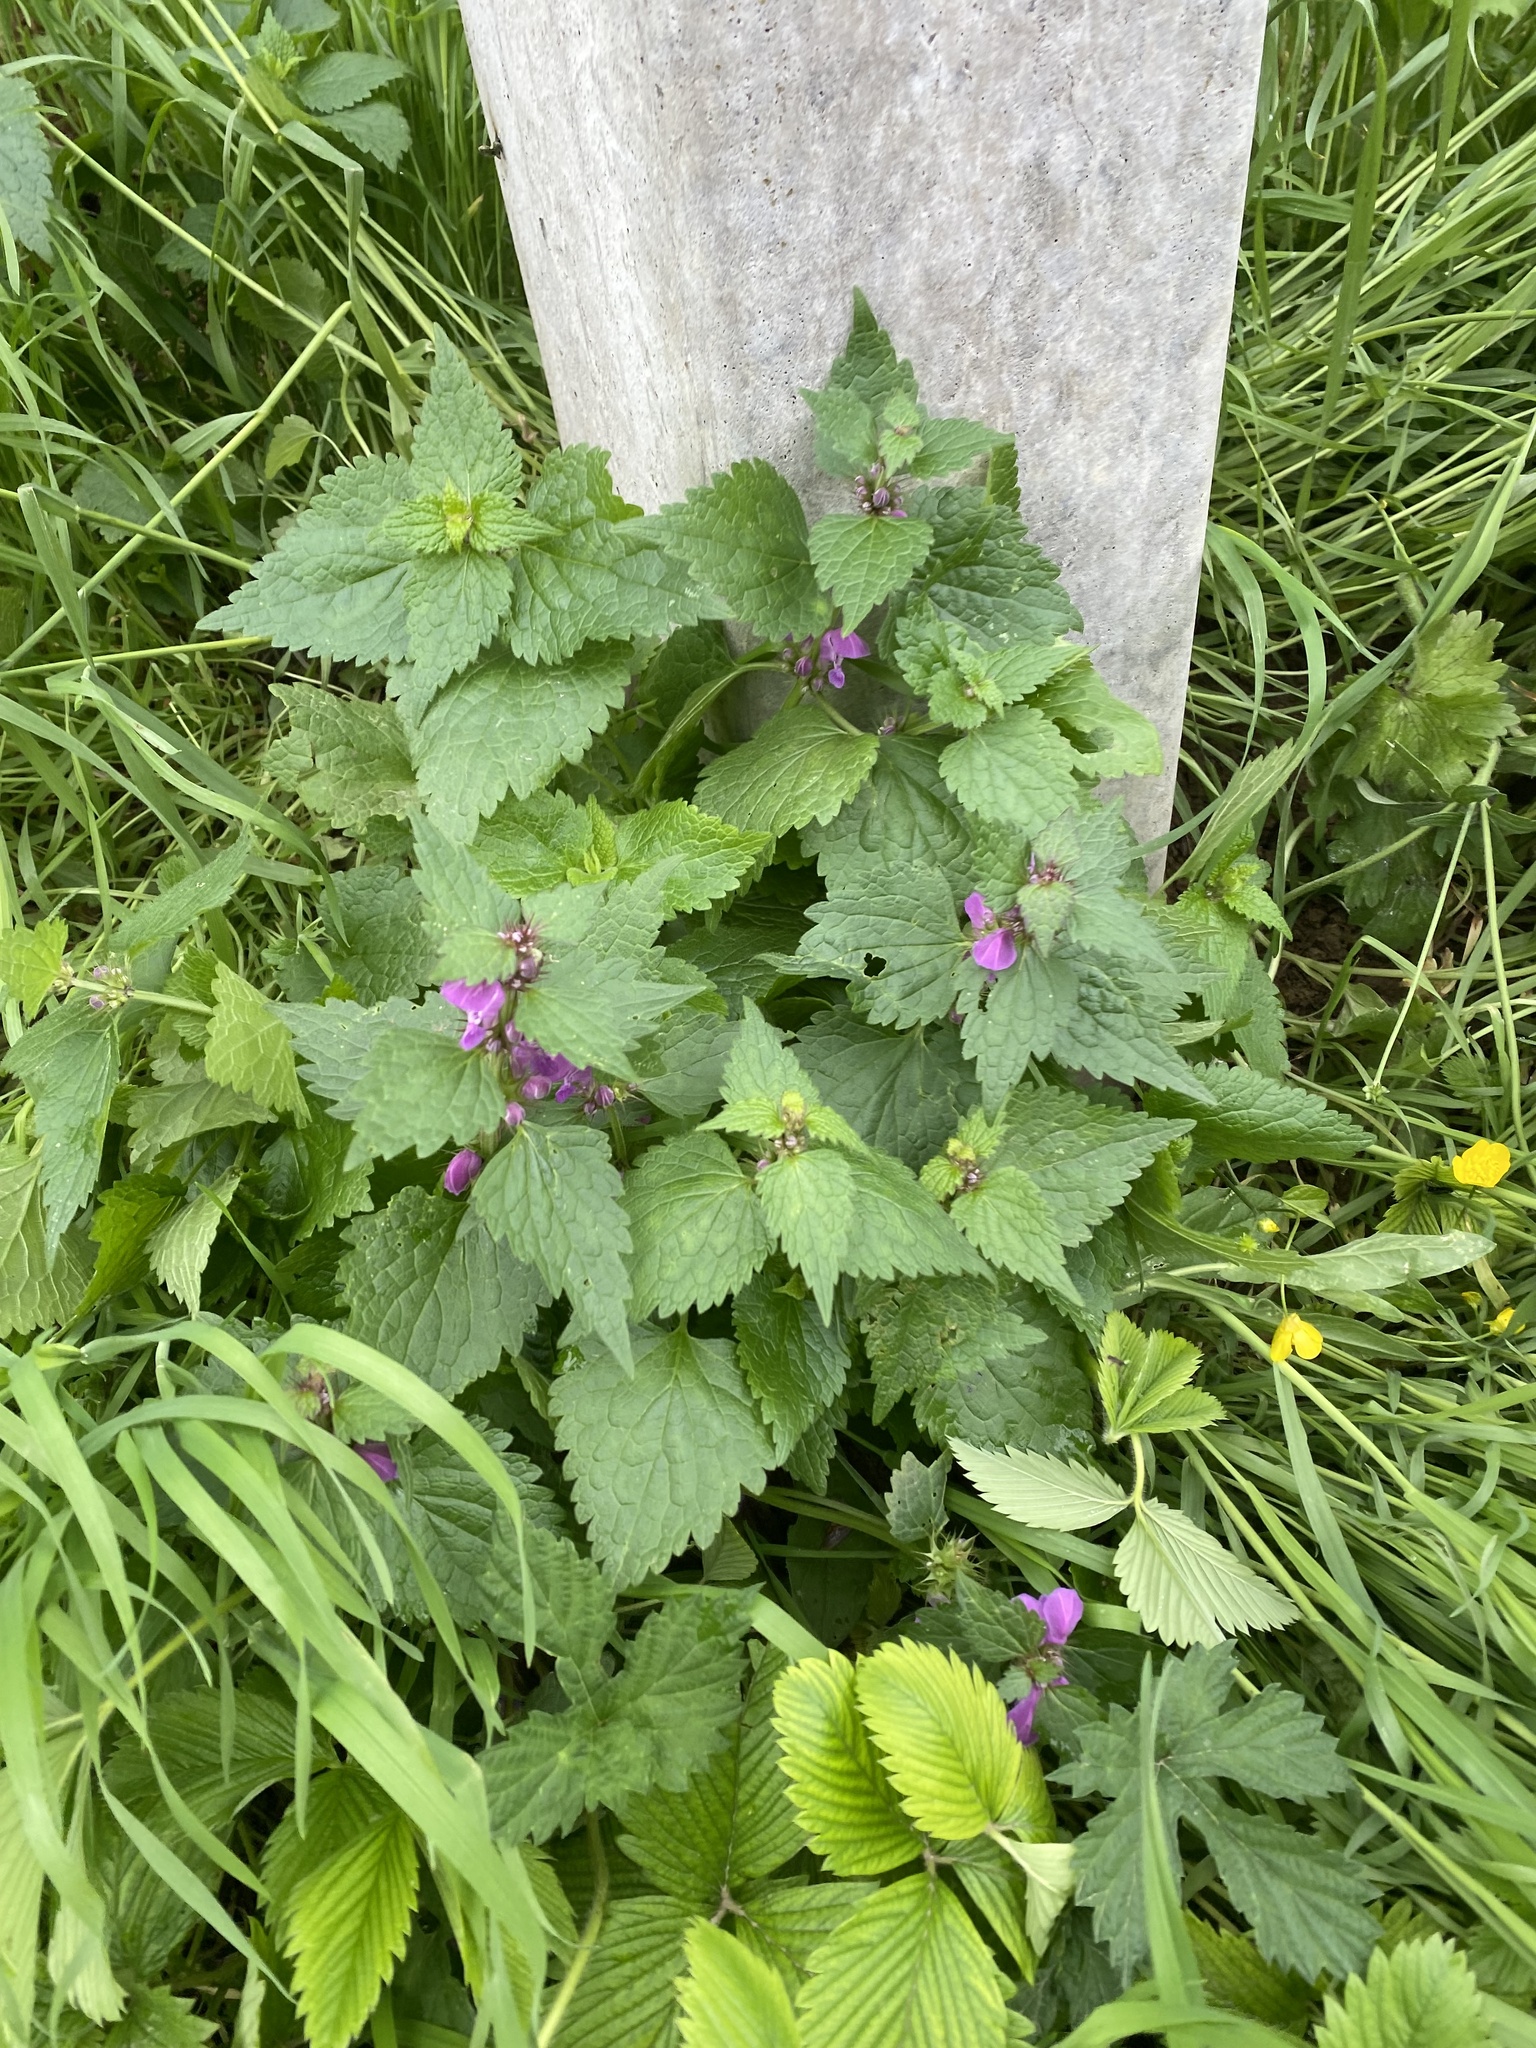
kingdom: Plantae
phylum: Tracheophyta
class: Magnoliopsida
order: Lamiales
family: Lamiaceae
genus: Lamium
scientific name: Lamium maculatum
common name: Spotted dead-nettle
